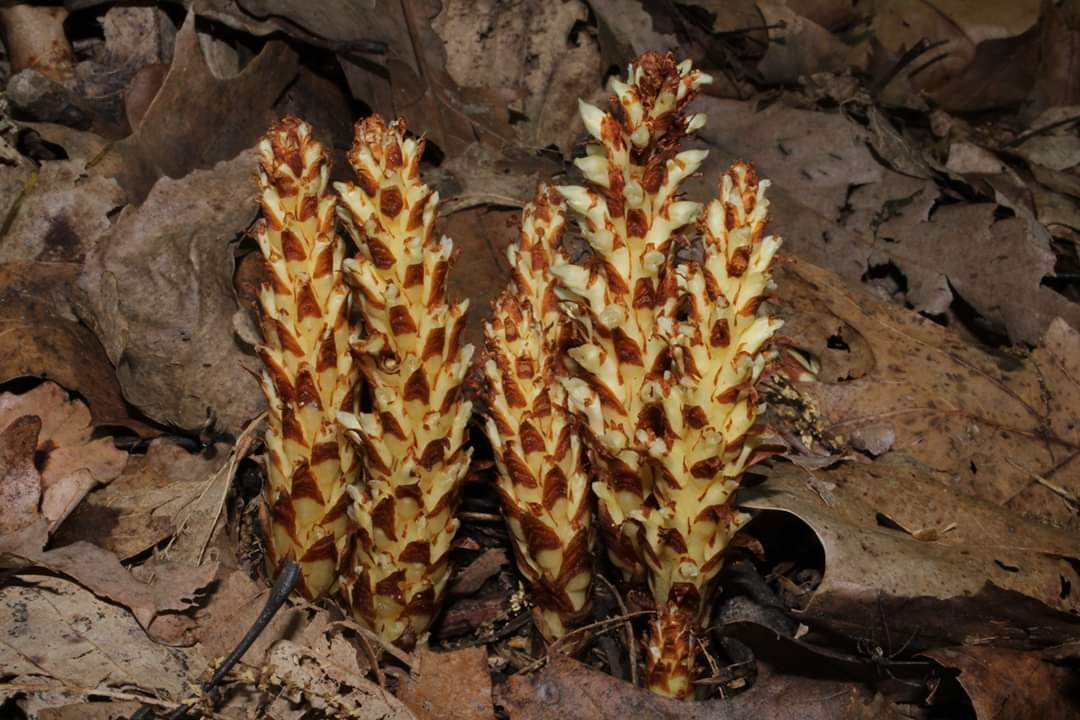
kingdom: Plantae
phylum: Tracheophyta
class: Magnoliopsida
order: Lamiales
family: Orobanchaceae
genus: Conopholis
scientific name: Conopholis americana
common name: American cancer-root
